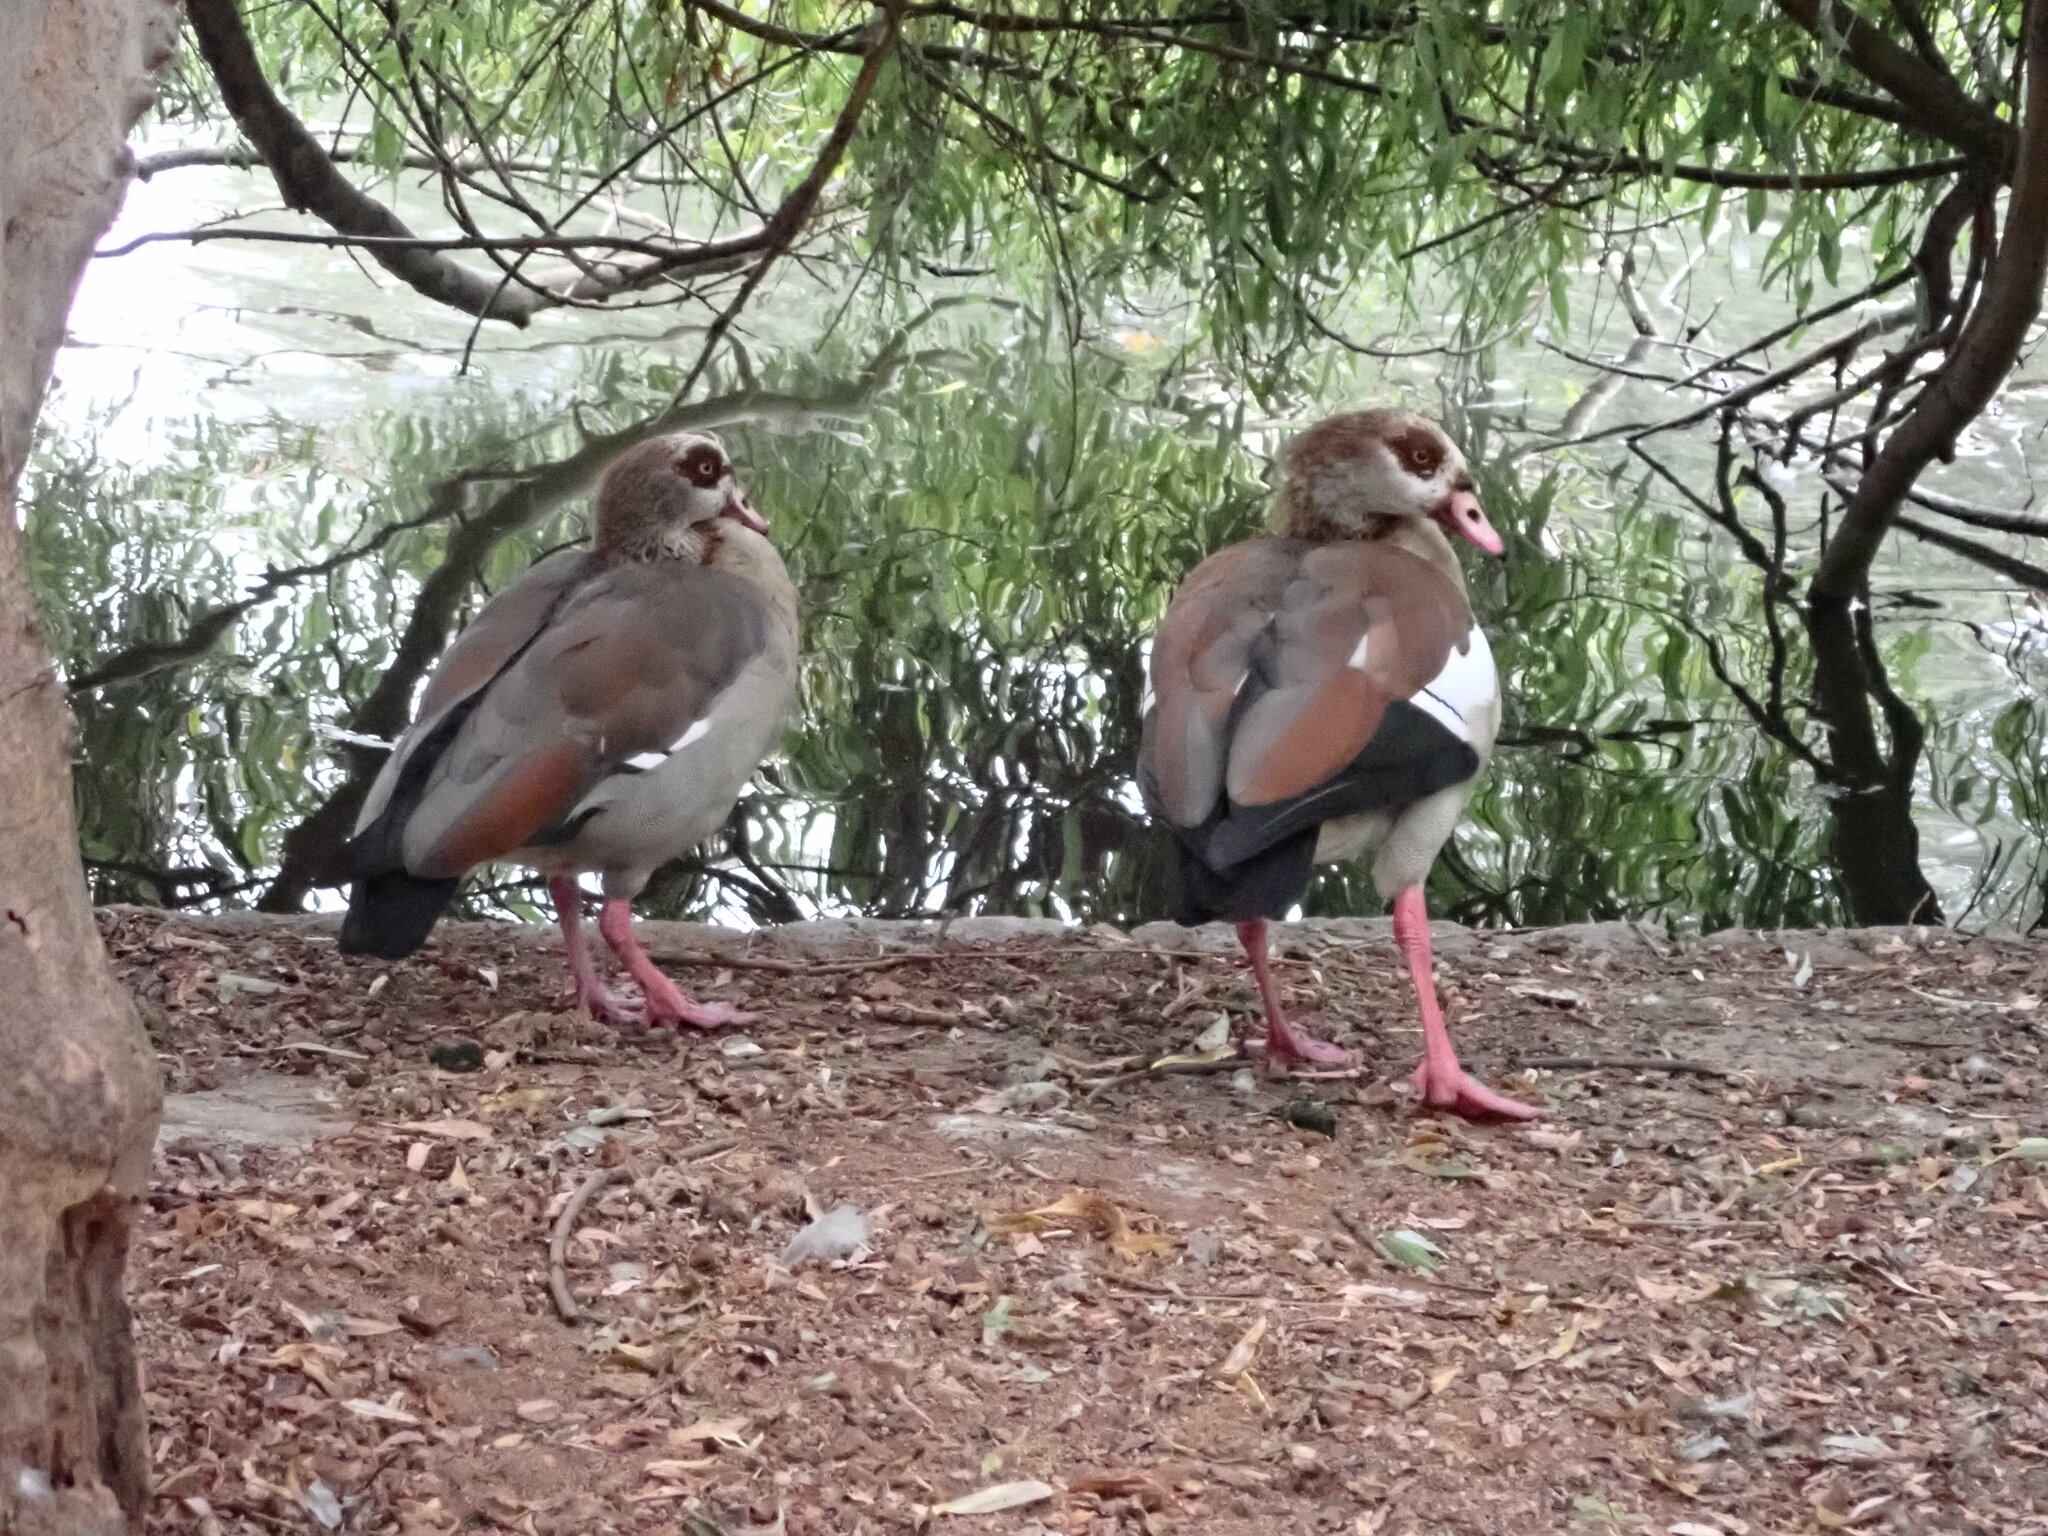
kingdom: Animalia
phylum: Chordata
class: Aves
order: Anseriformes
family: Anatidae
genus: Alopochen
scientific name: Alopochen aegyptiaca
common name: Egyptian goose
